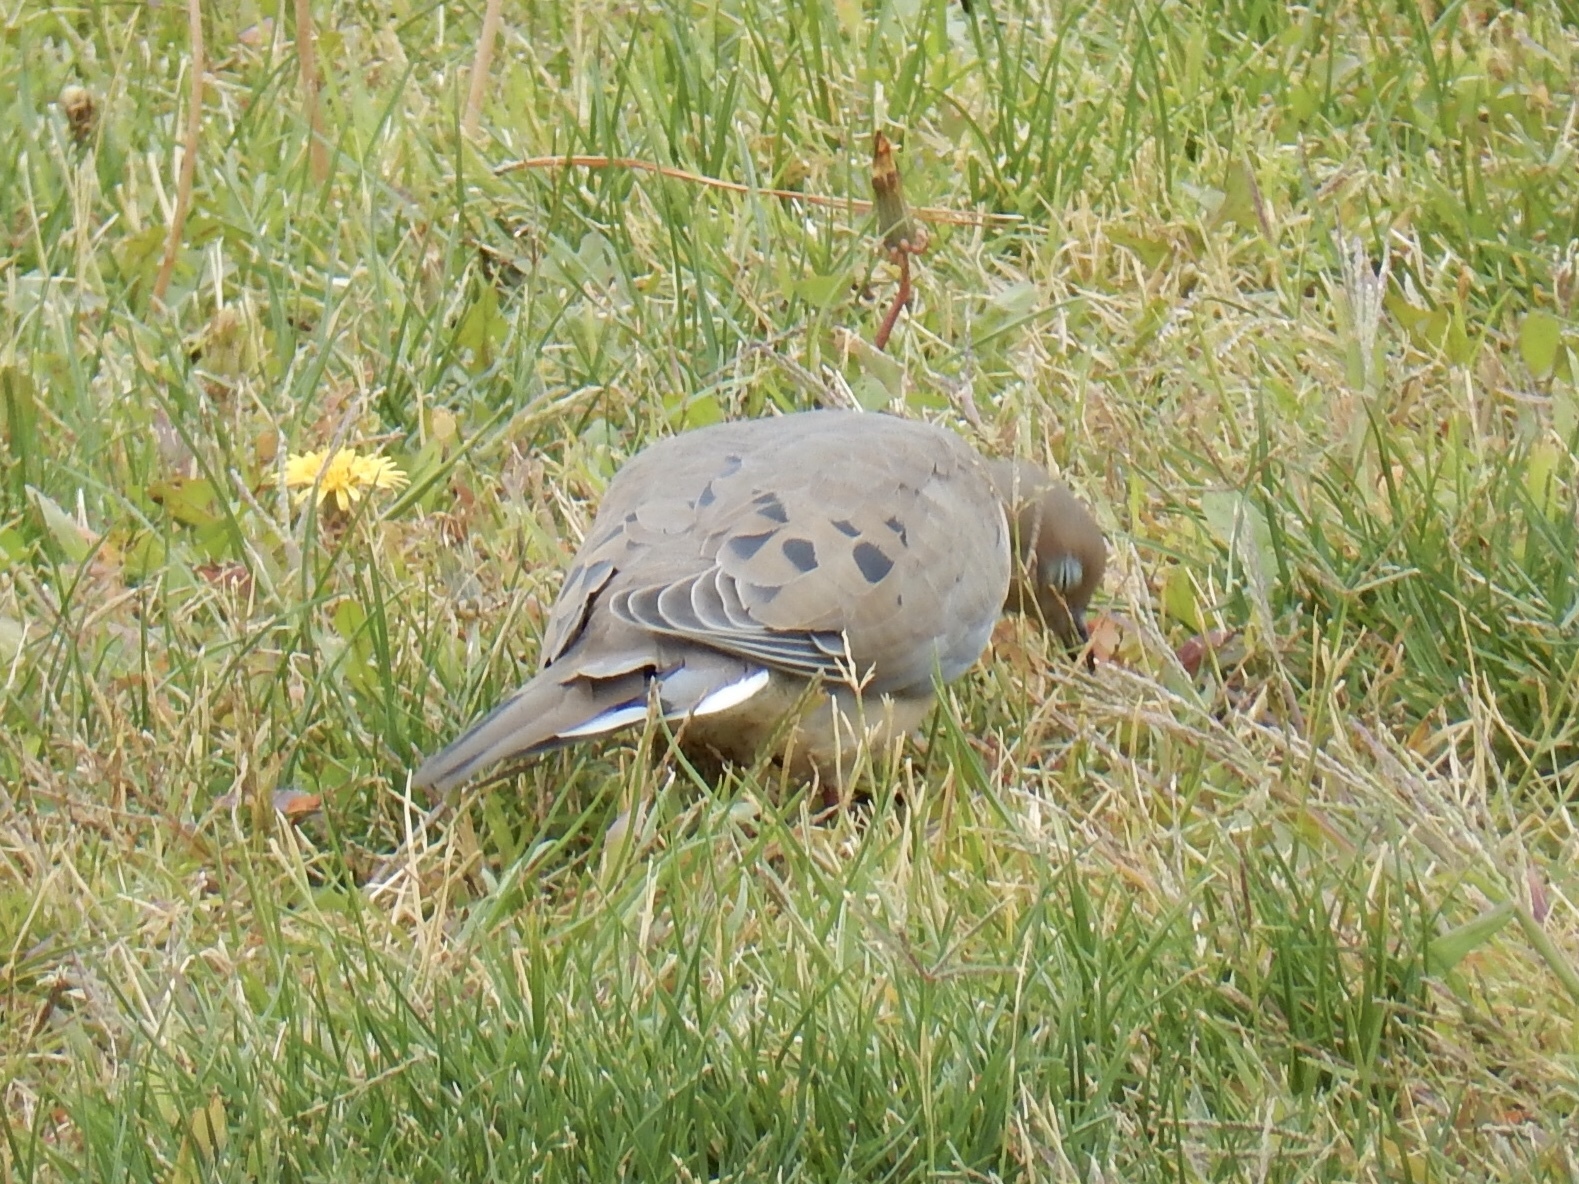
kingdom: Animalia
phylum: Chordata
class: Aves
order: Columbiformes
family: Columbidae
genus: Zenaida
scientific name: Zenaida macroura
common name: Mourning dove
